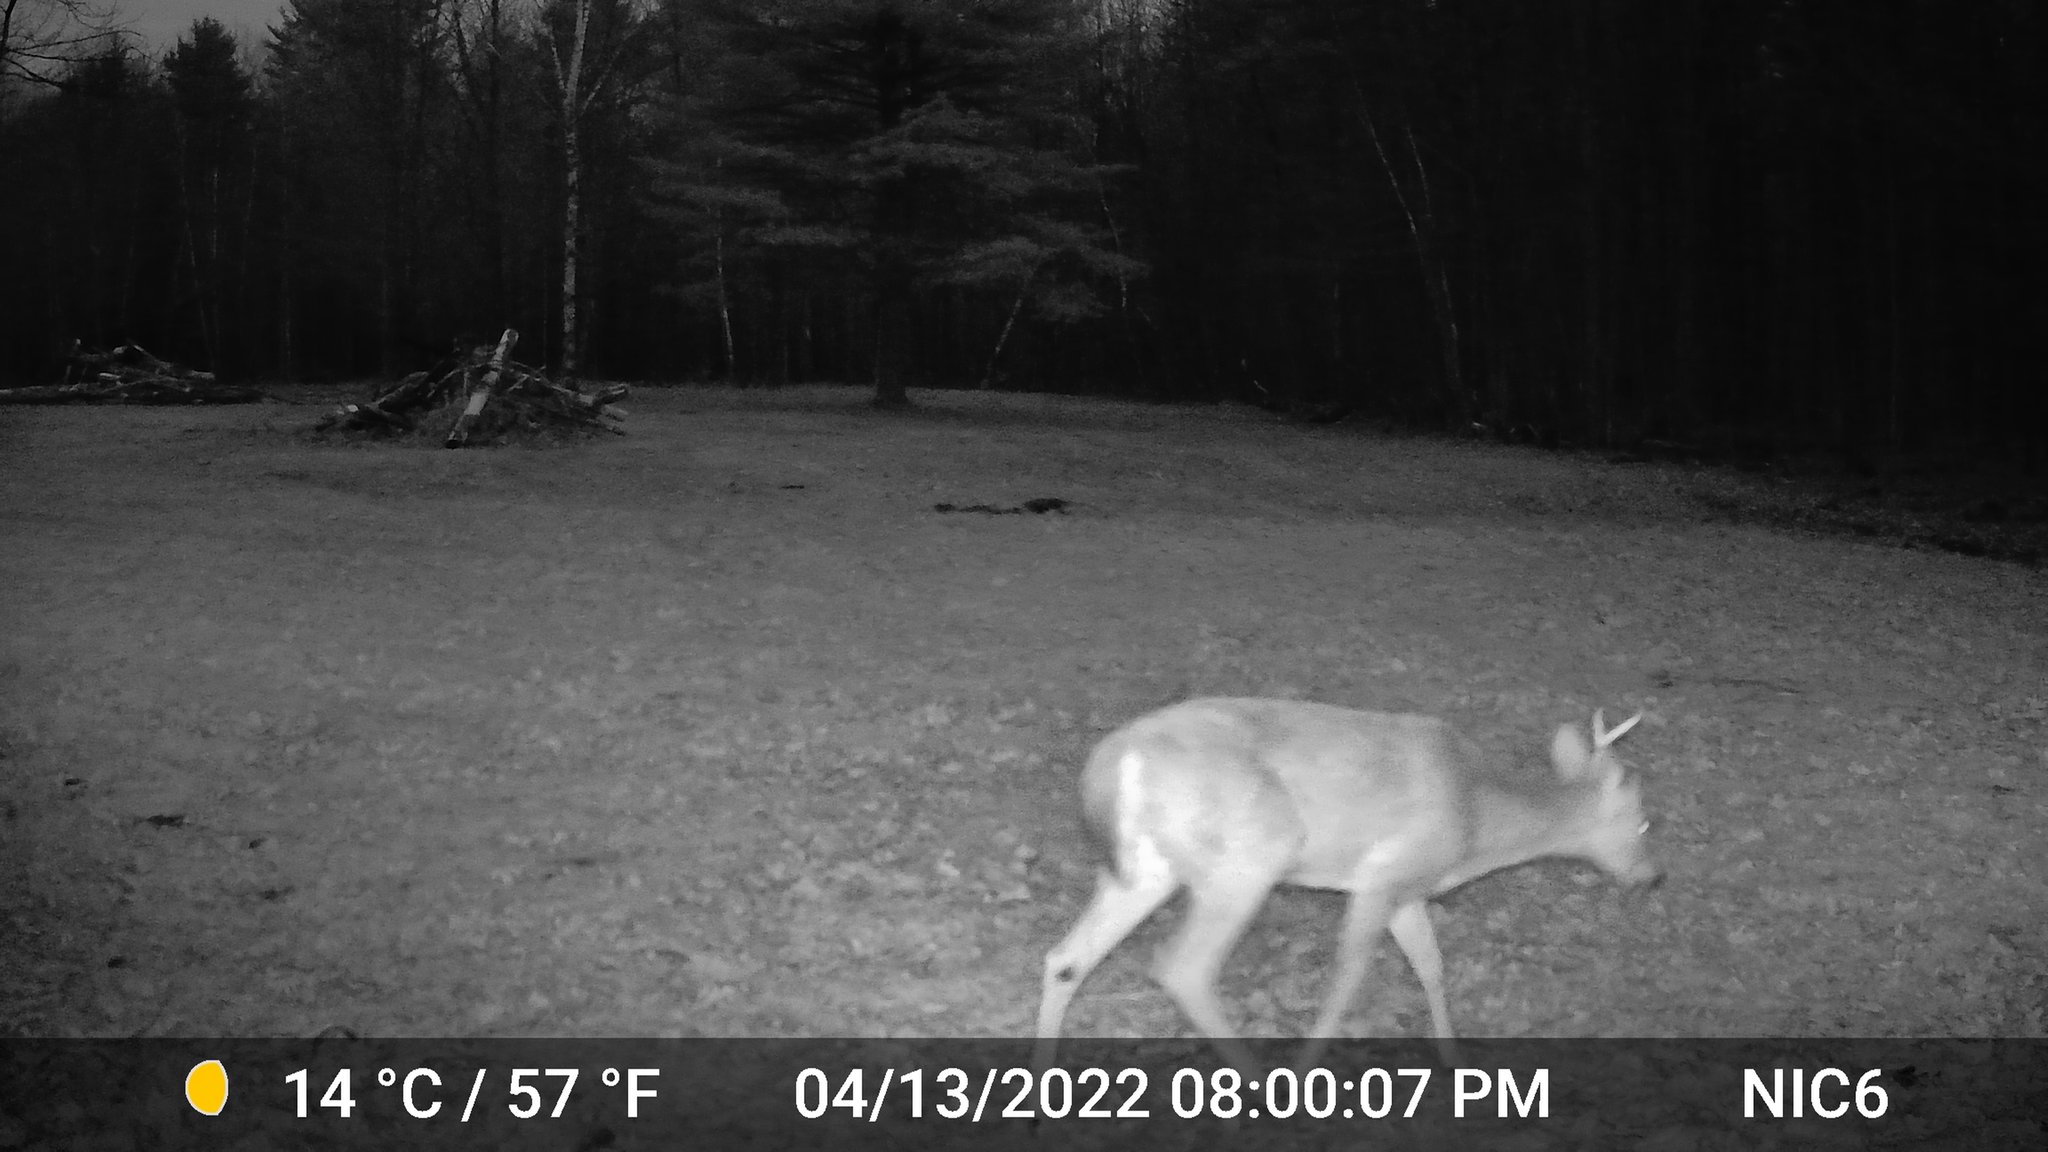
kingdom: Animalia
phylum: Chordata
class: Mammalia
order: Artiodactyla
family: Cervidae
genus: Odocoileus
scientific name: Odocoileus virginianus
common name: White-tailed deer
